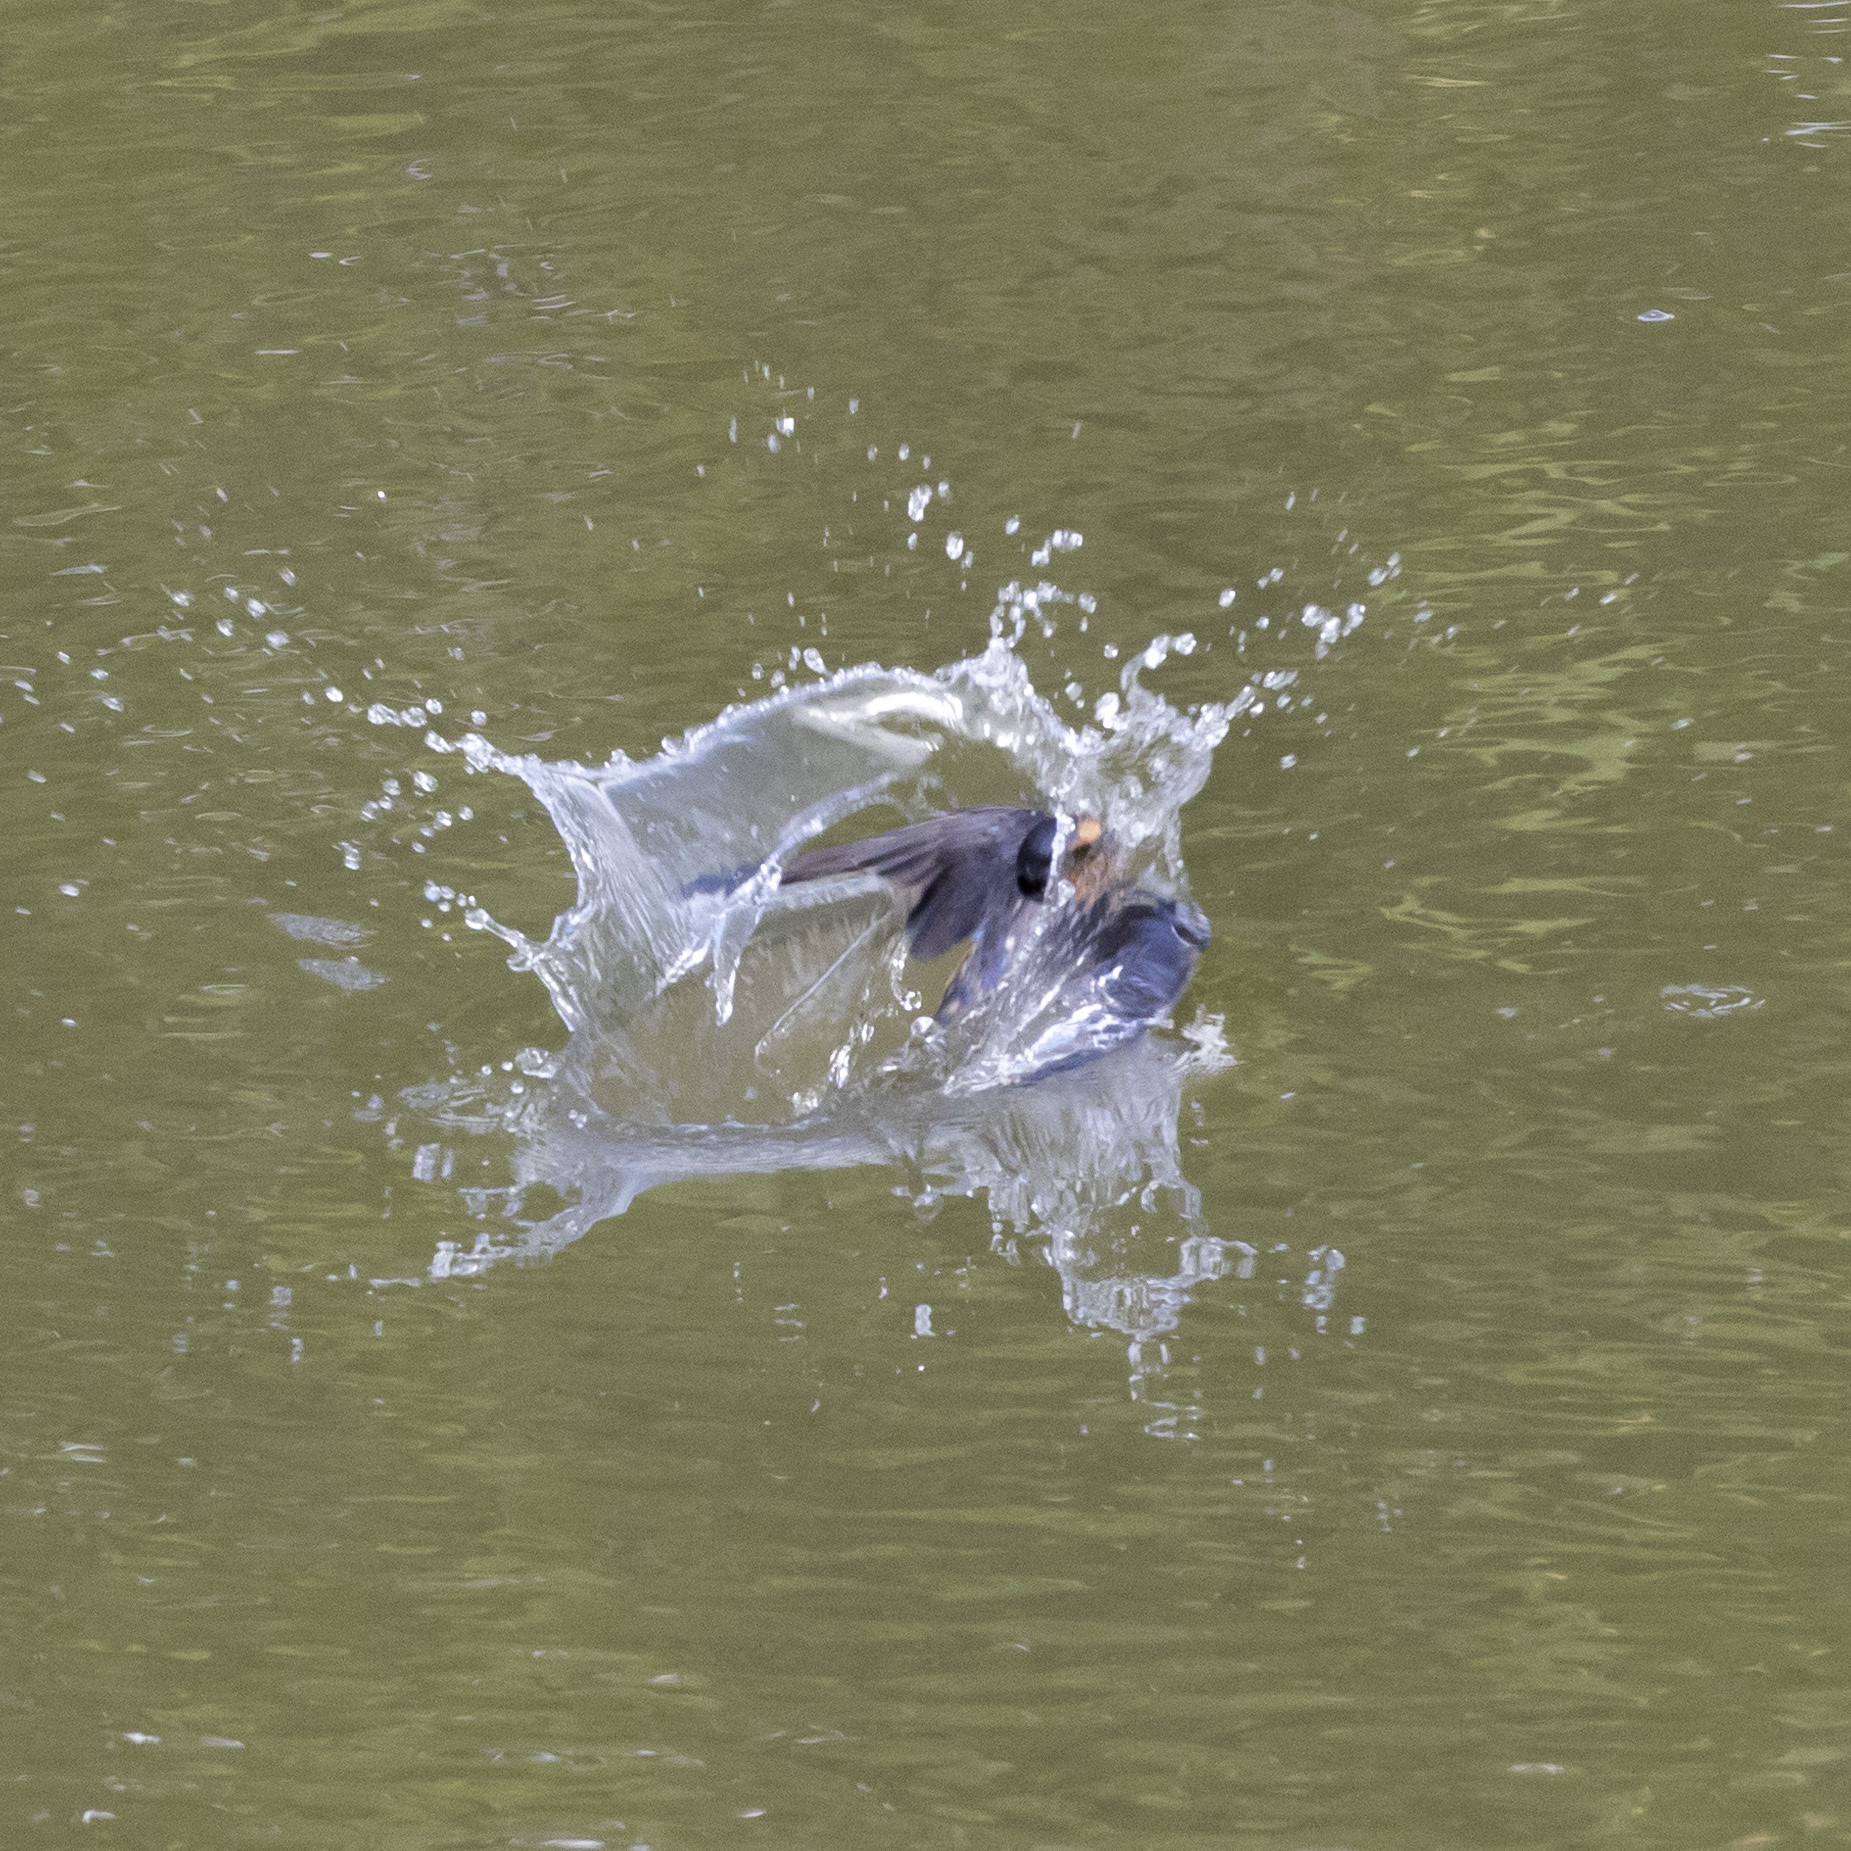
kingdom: Animalia
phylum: Chordata
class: Aves
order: Passeriformes
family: Hirundinidae
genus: Hirundo
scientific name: Hirundo rustica
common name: Barn swallow
